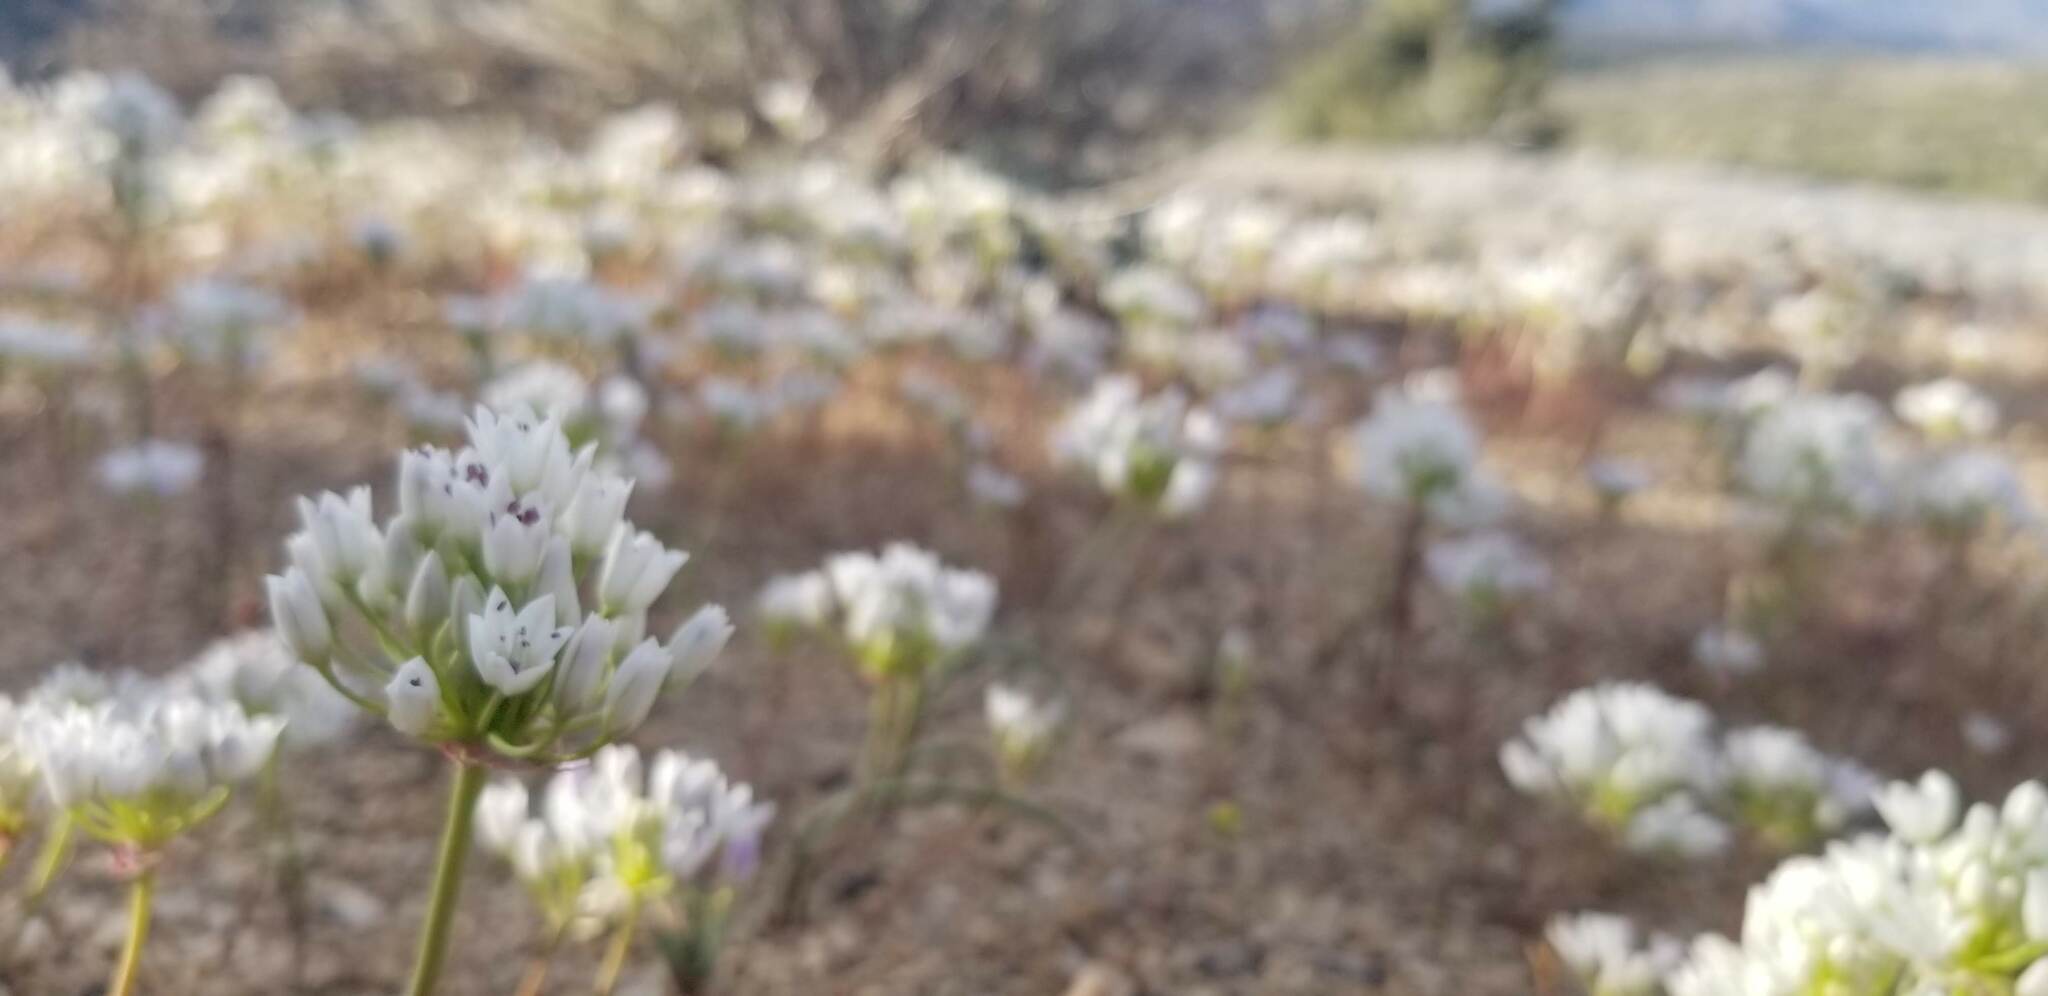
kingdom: Plantae
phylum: Tracheophyta
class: Liliopsida
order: Asparagales
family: Amaryllidaceae
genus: Allium
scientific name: Allium parryi
